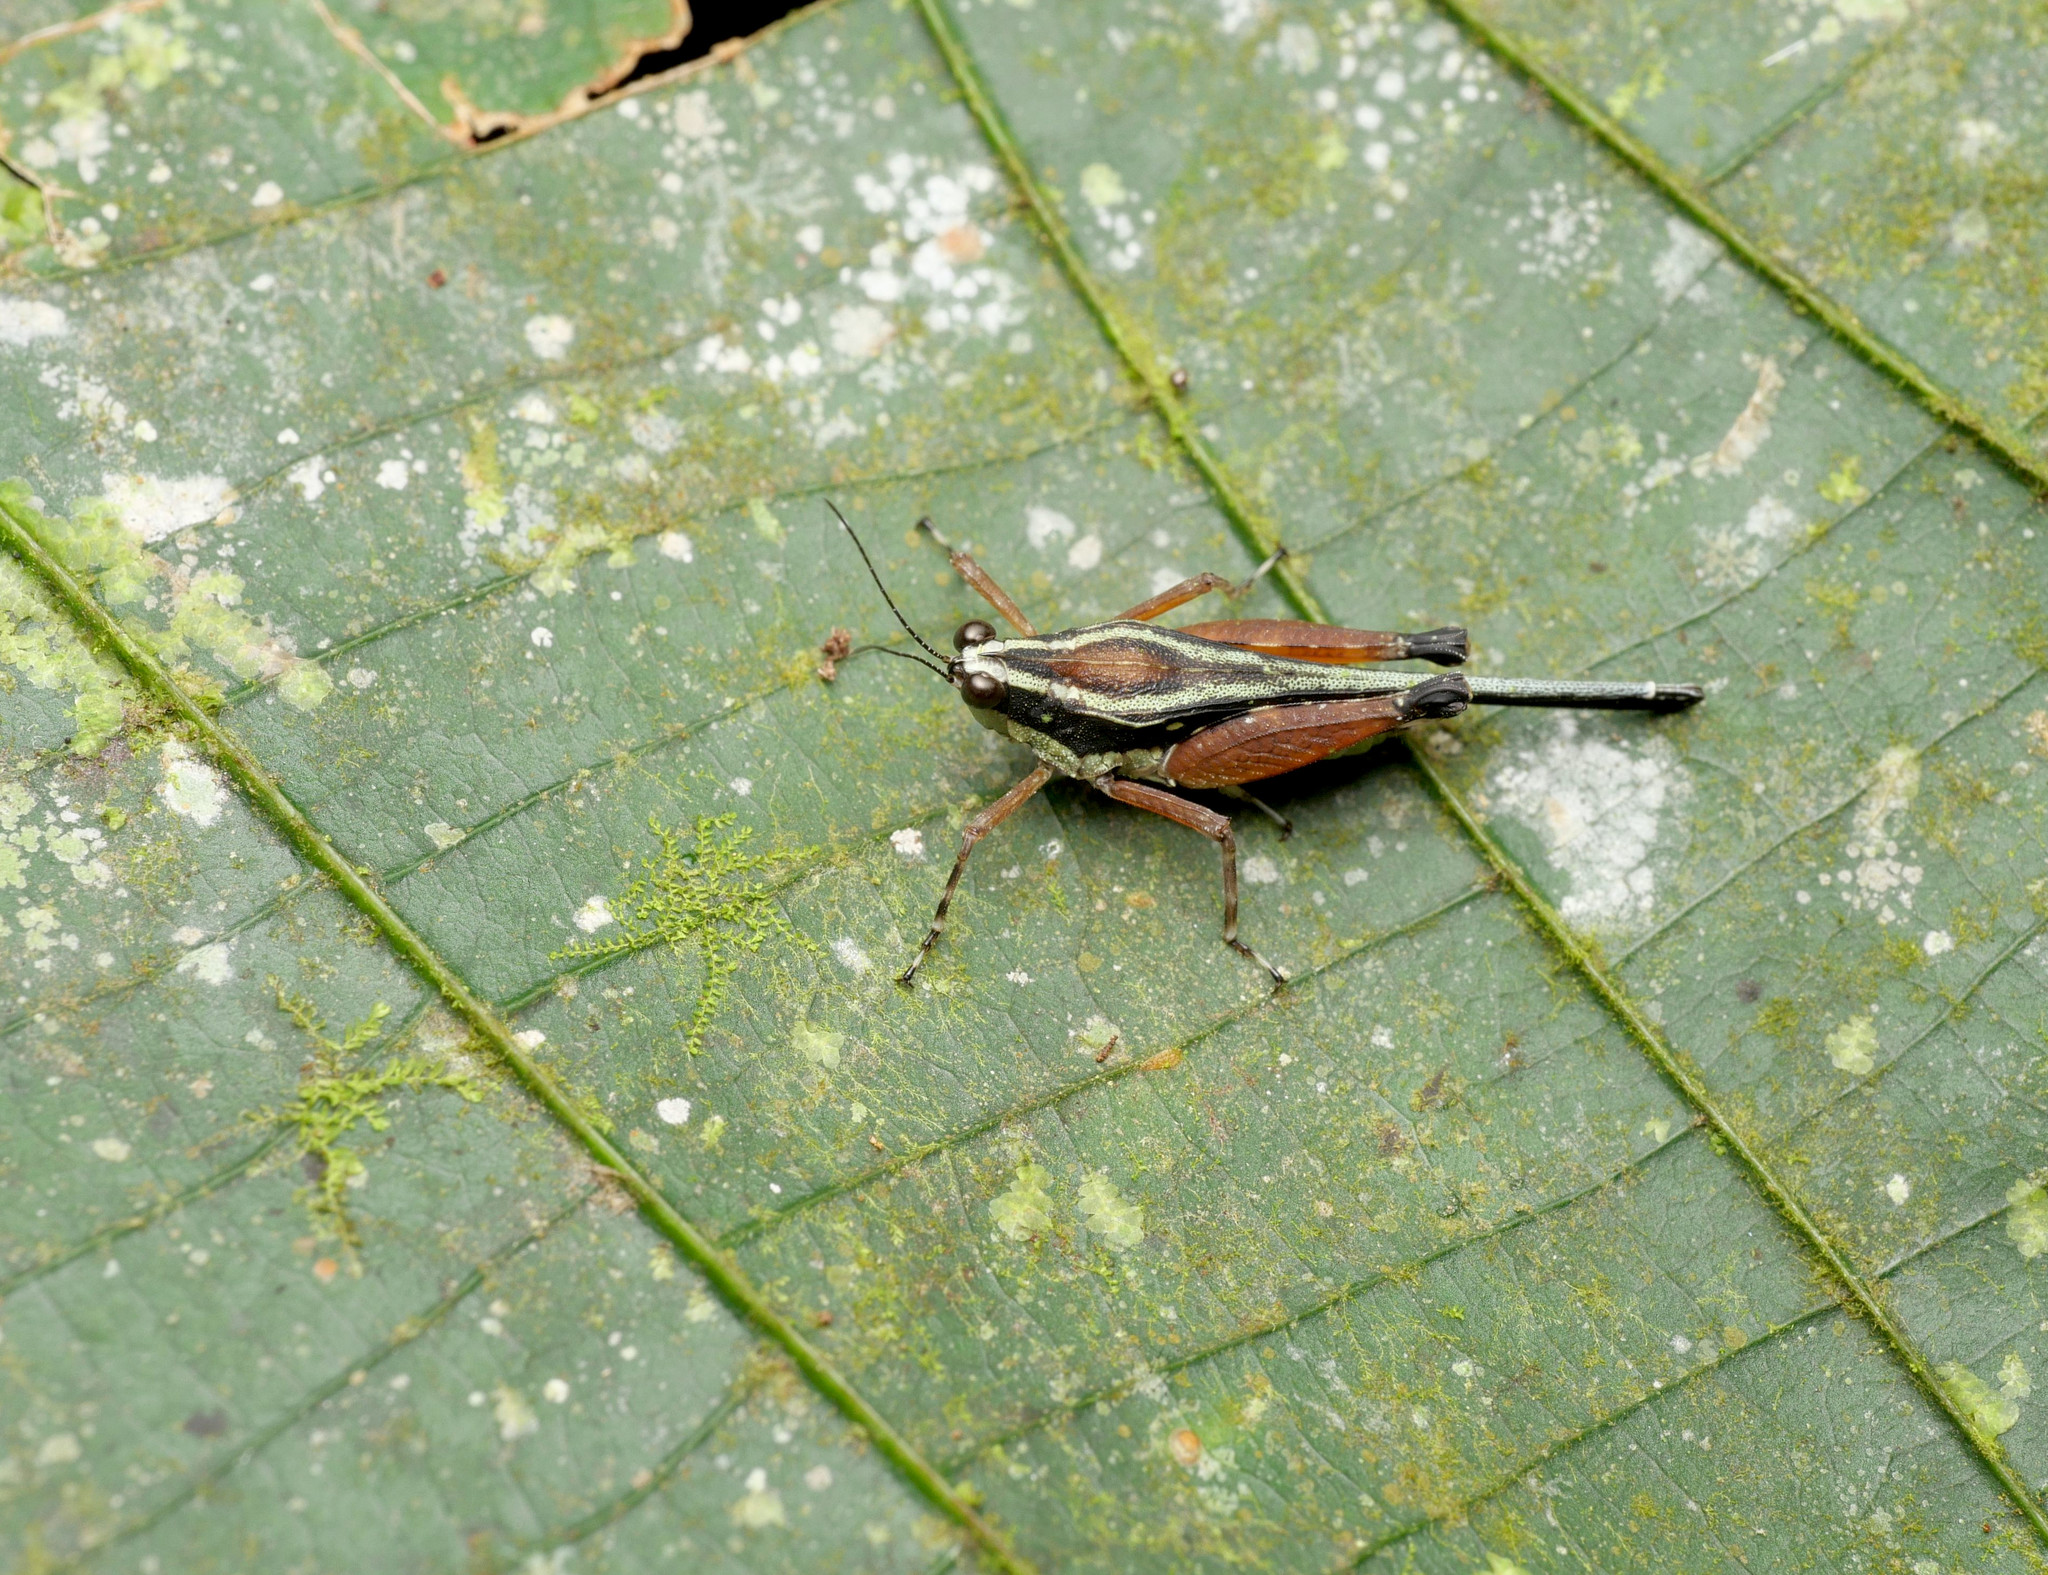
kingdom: Animalia
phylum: Arthropoda
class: Insecta
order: Orthoptera
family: Tetrigidae
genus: Scaria
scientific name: Scaria fasciata
